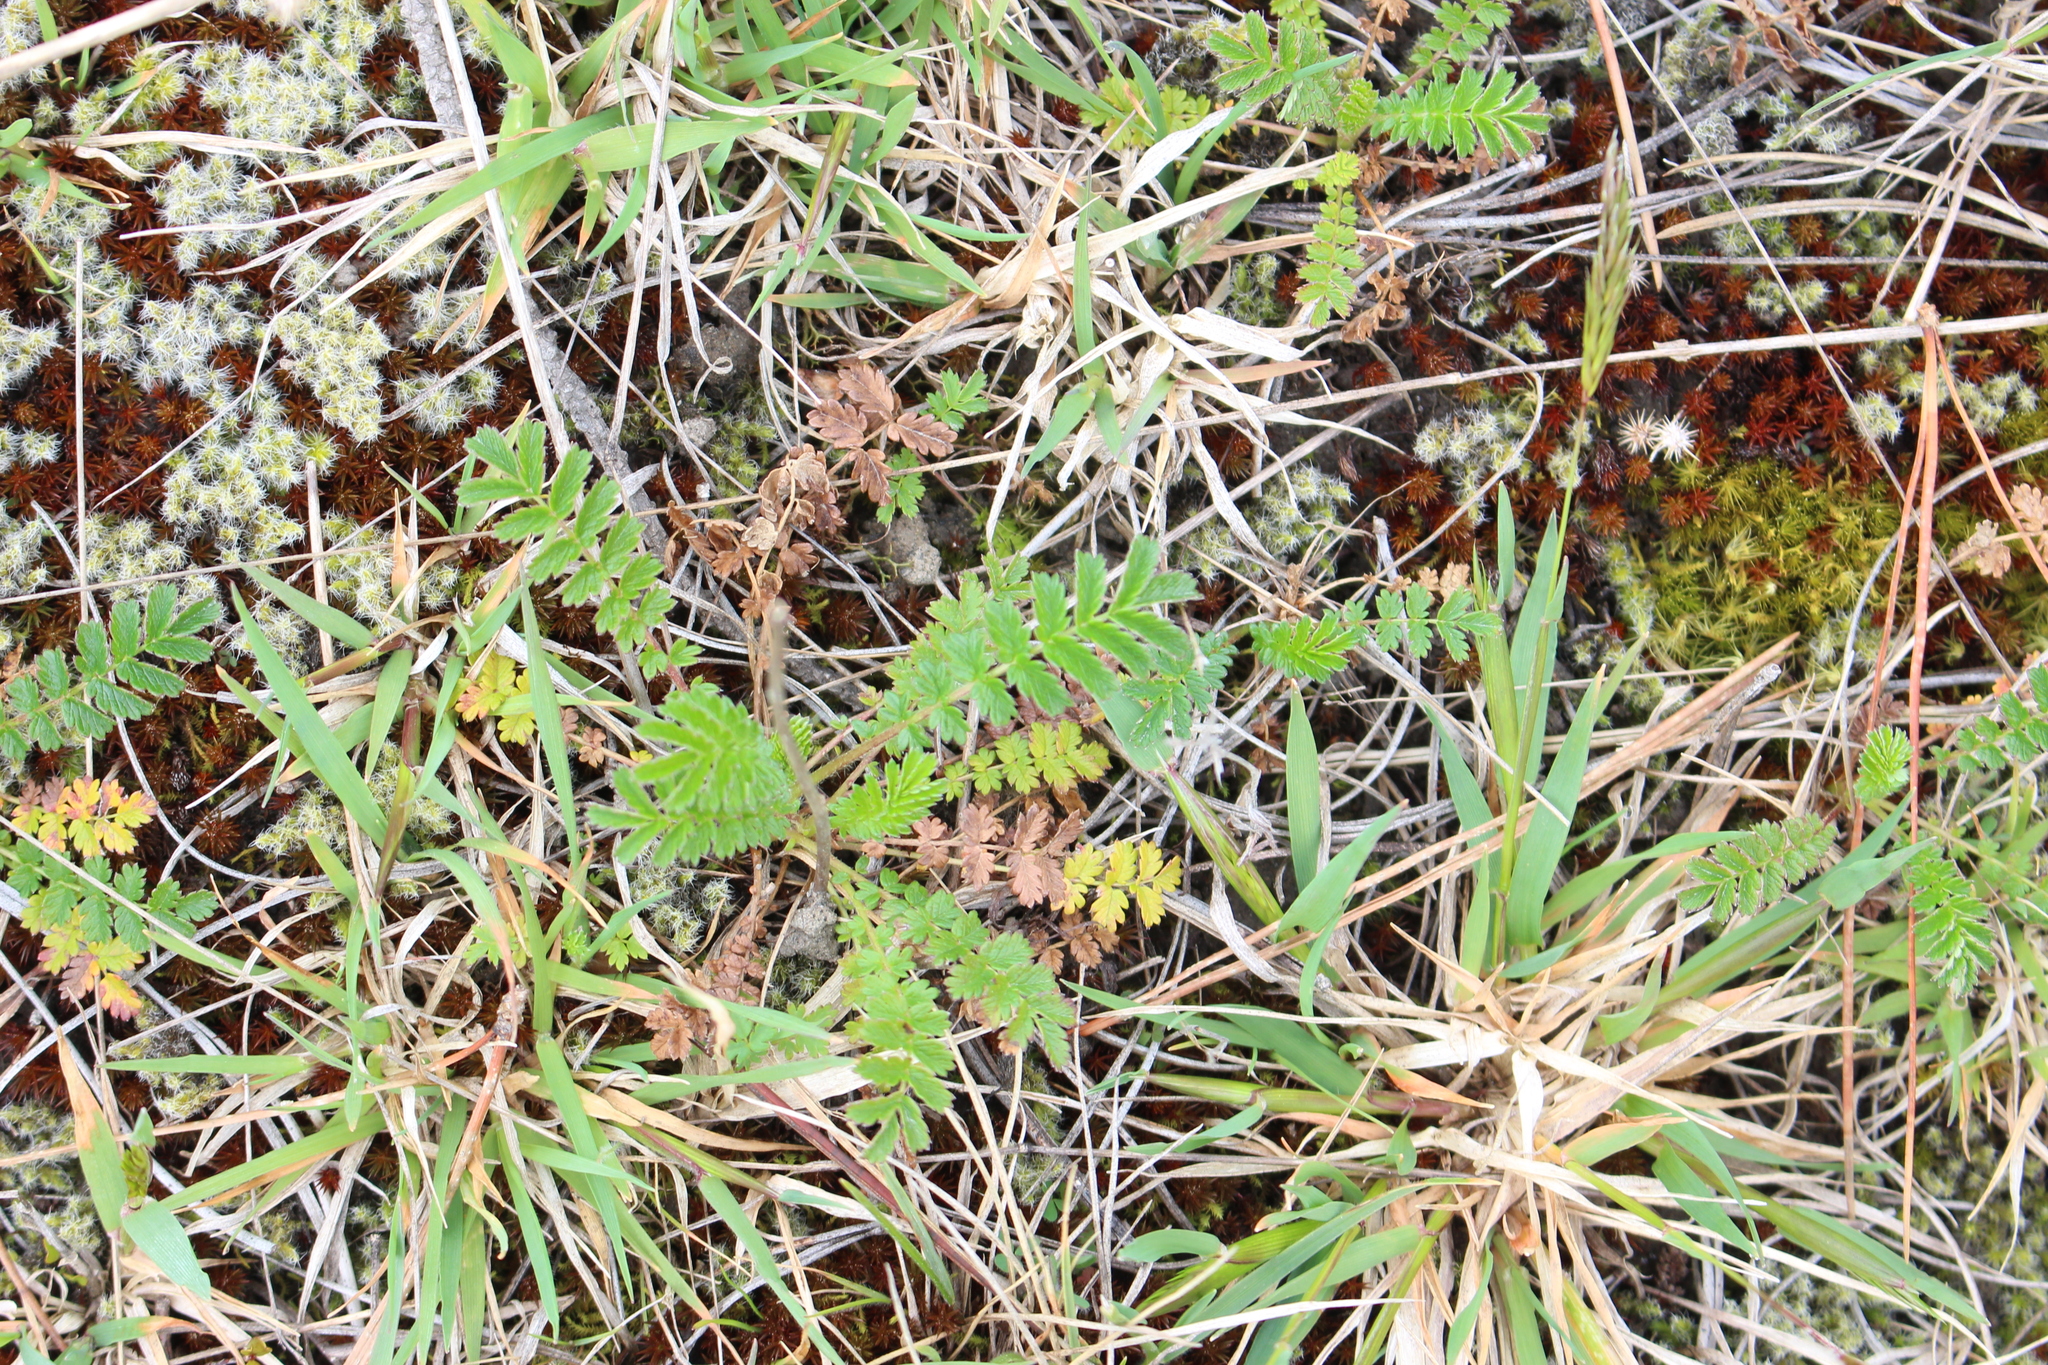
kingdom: Plantae
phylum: Tracheophyta
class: Magnoliopsida
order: Rosales
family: Rosaceae
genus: Acaena
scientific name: Acaena agnipila
